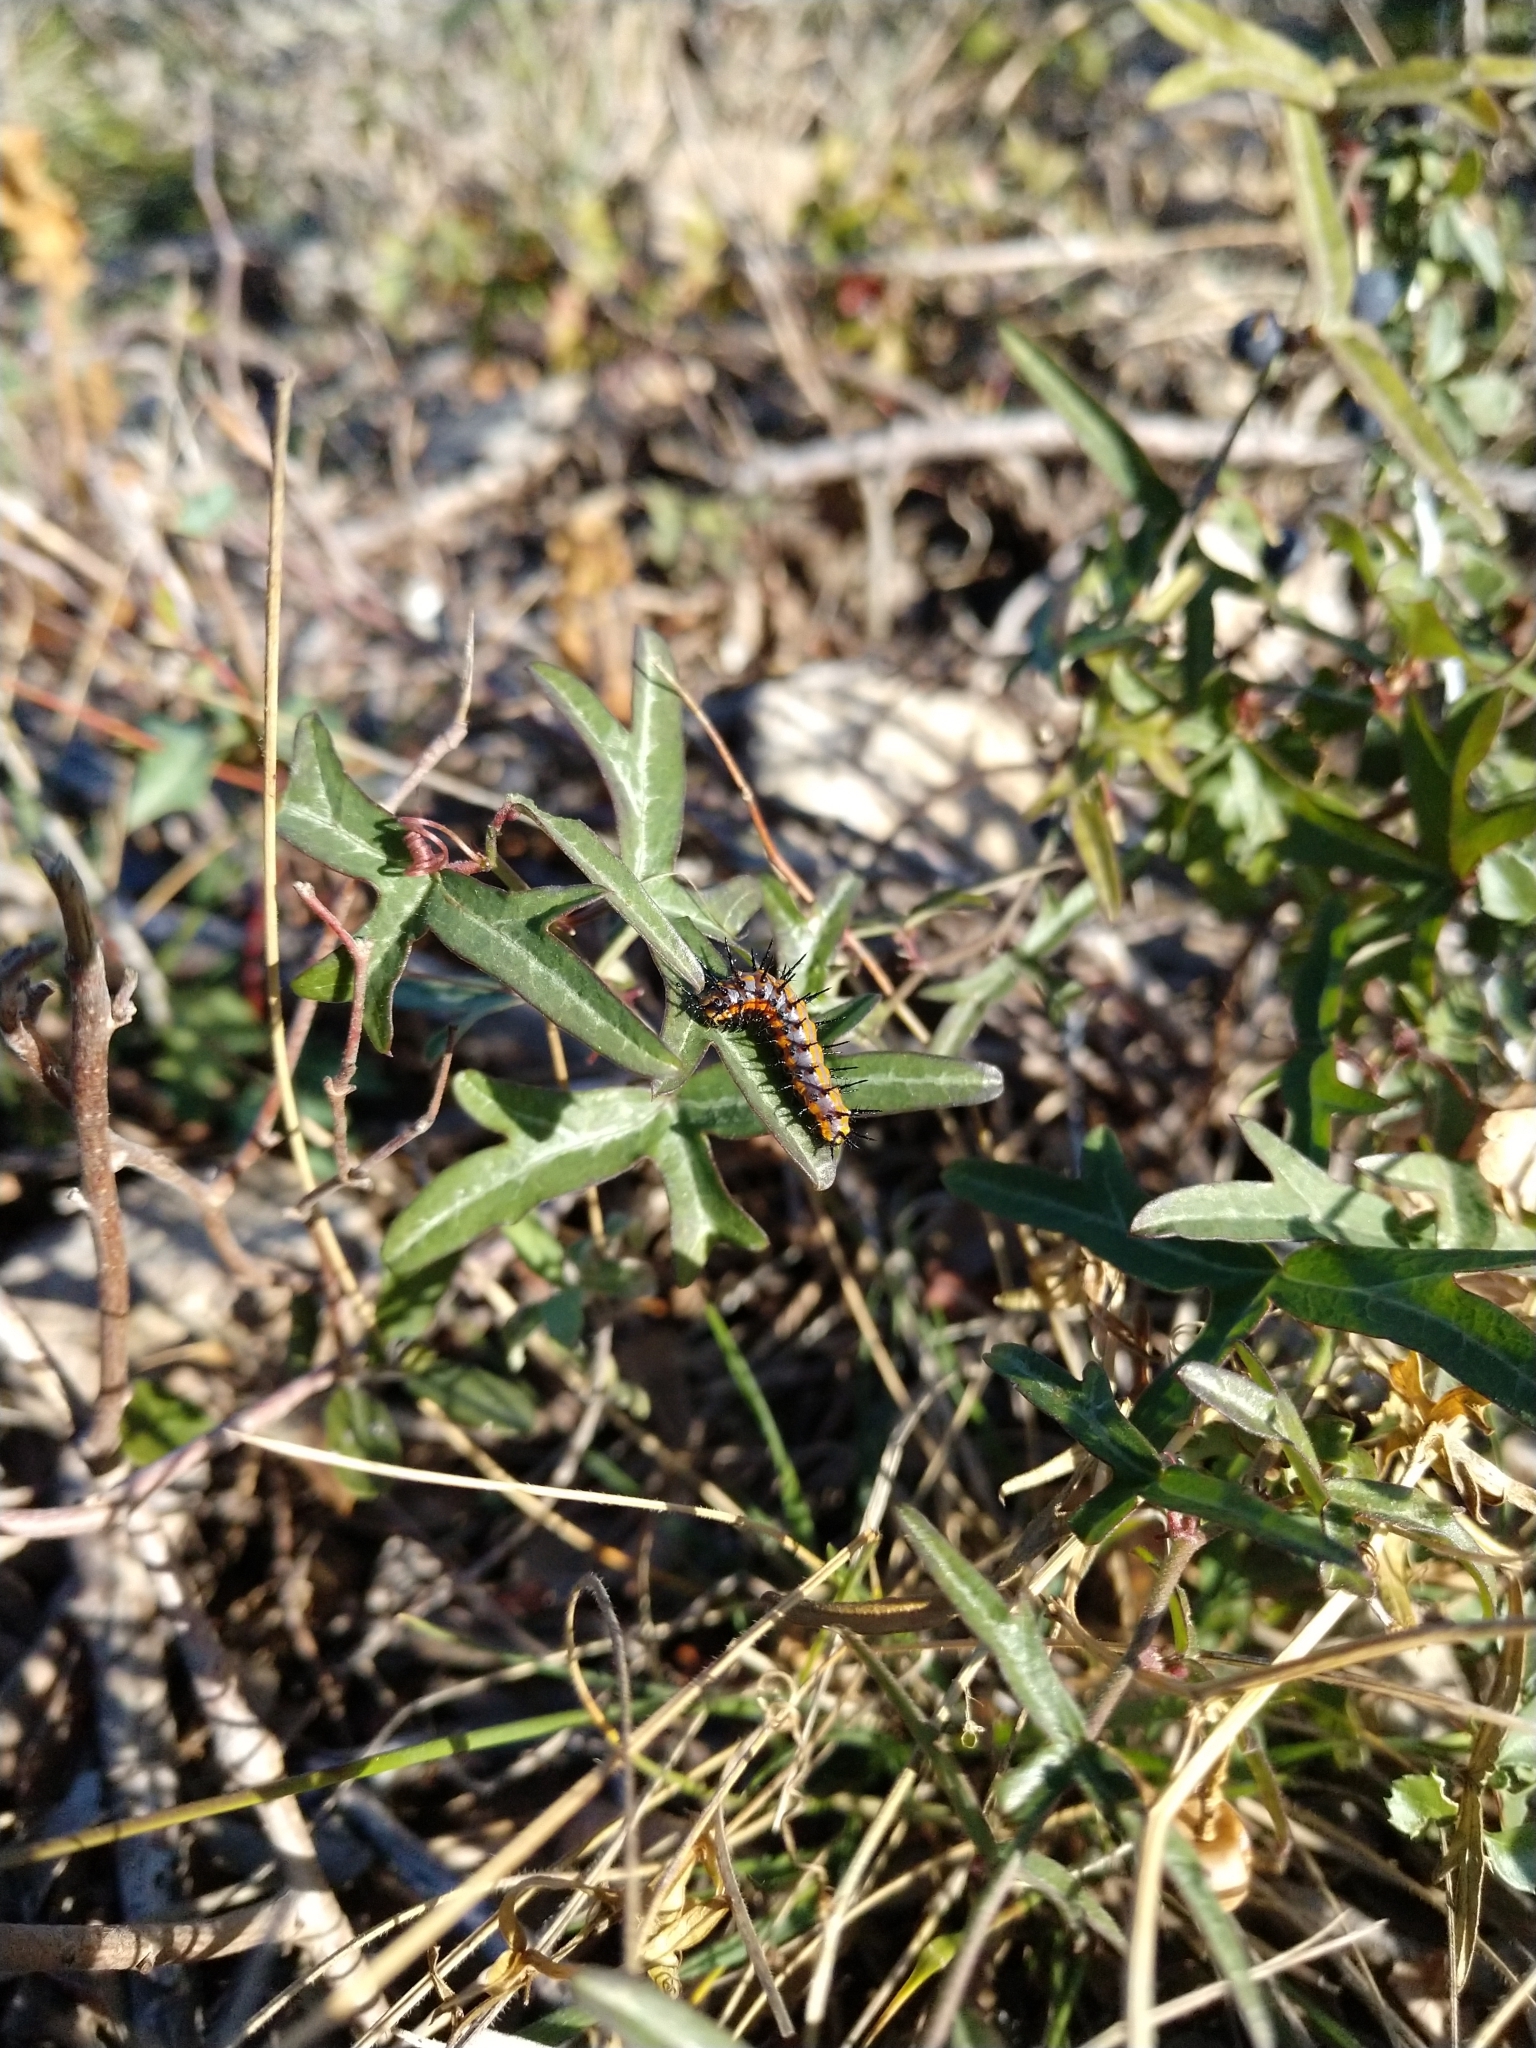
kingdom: Animalia
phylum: Arthropoda
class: Insecta
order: Lepidoptera
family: Nymphalidae
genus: Dione
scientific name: Dione vanillae
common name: Gulf fritillary
